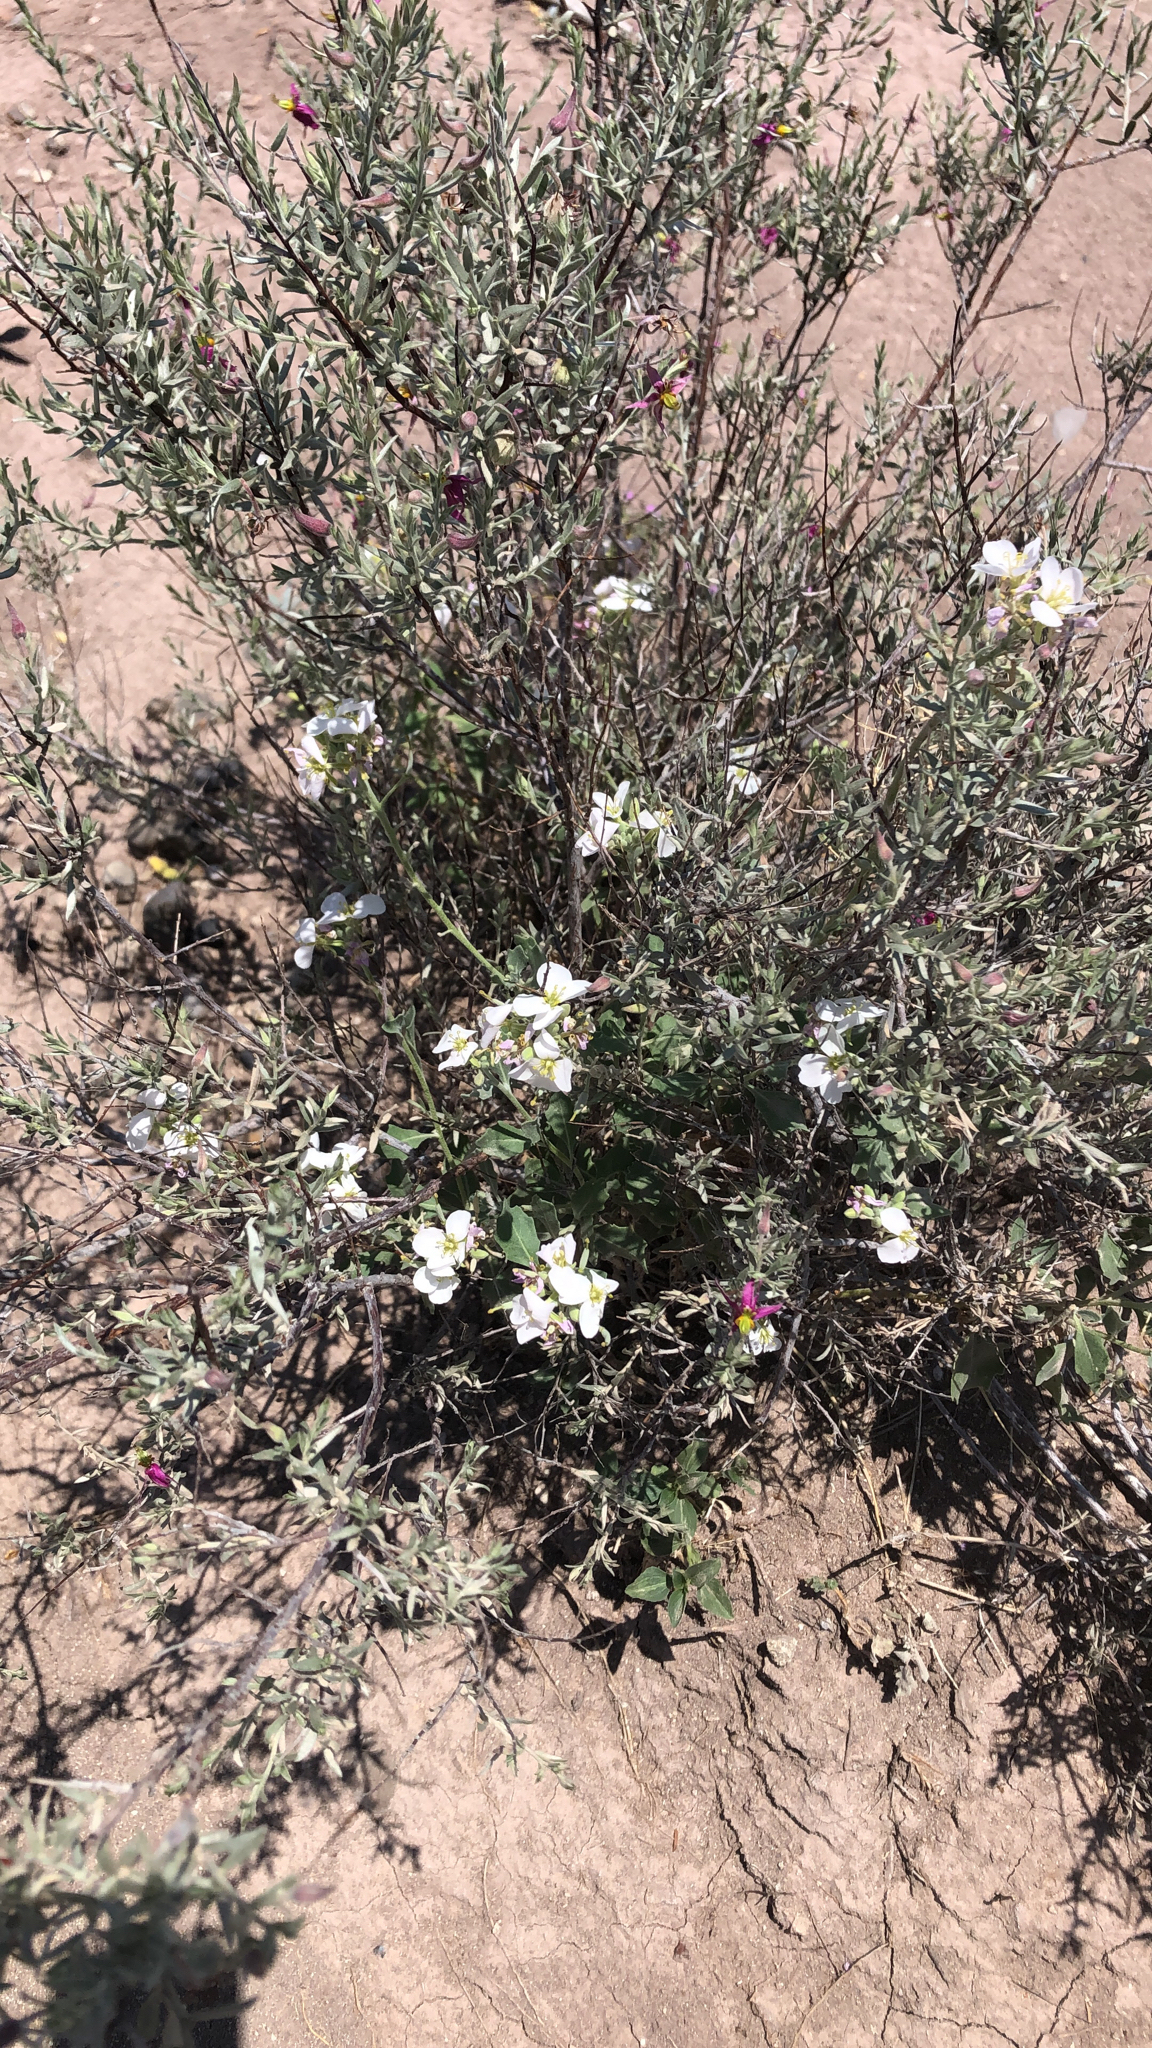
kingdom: Plantae
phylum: Tracheophyta
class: Magnoliopsida
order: Brassicales
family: Brassicaceae
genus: Nerisyrenia
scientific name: Nerisyrenia camporum
